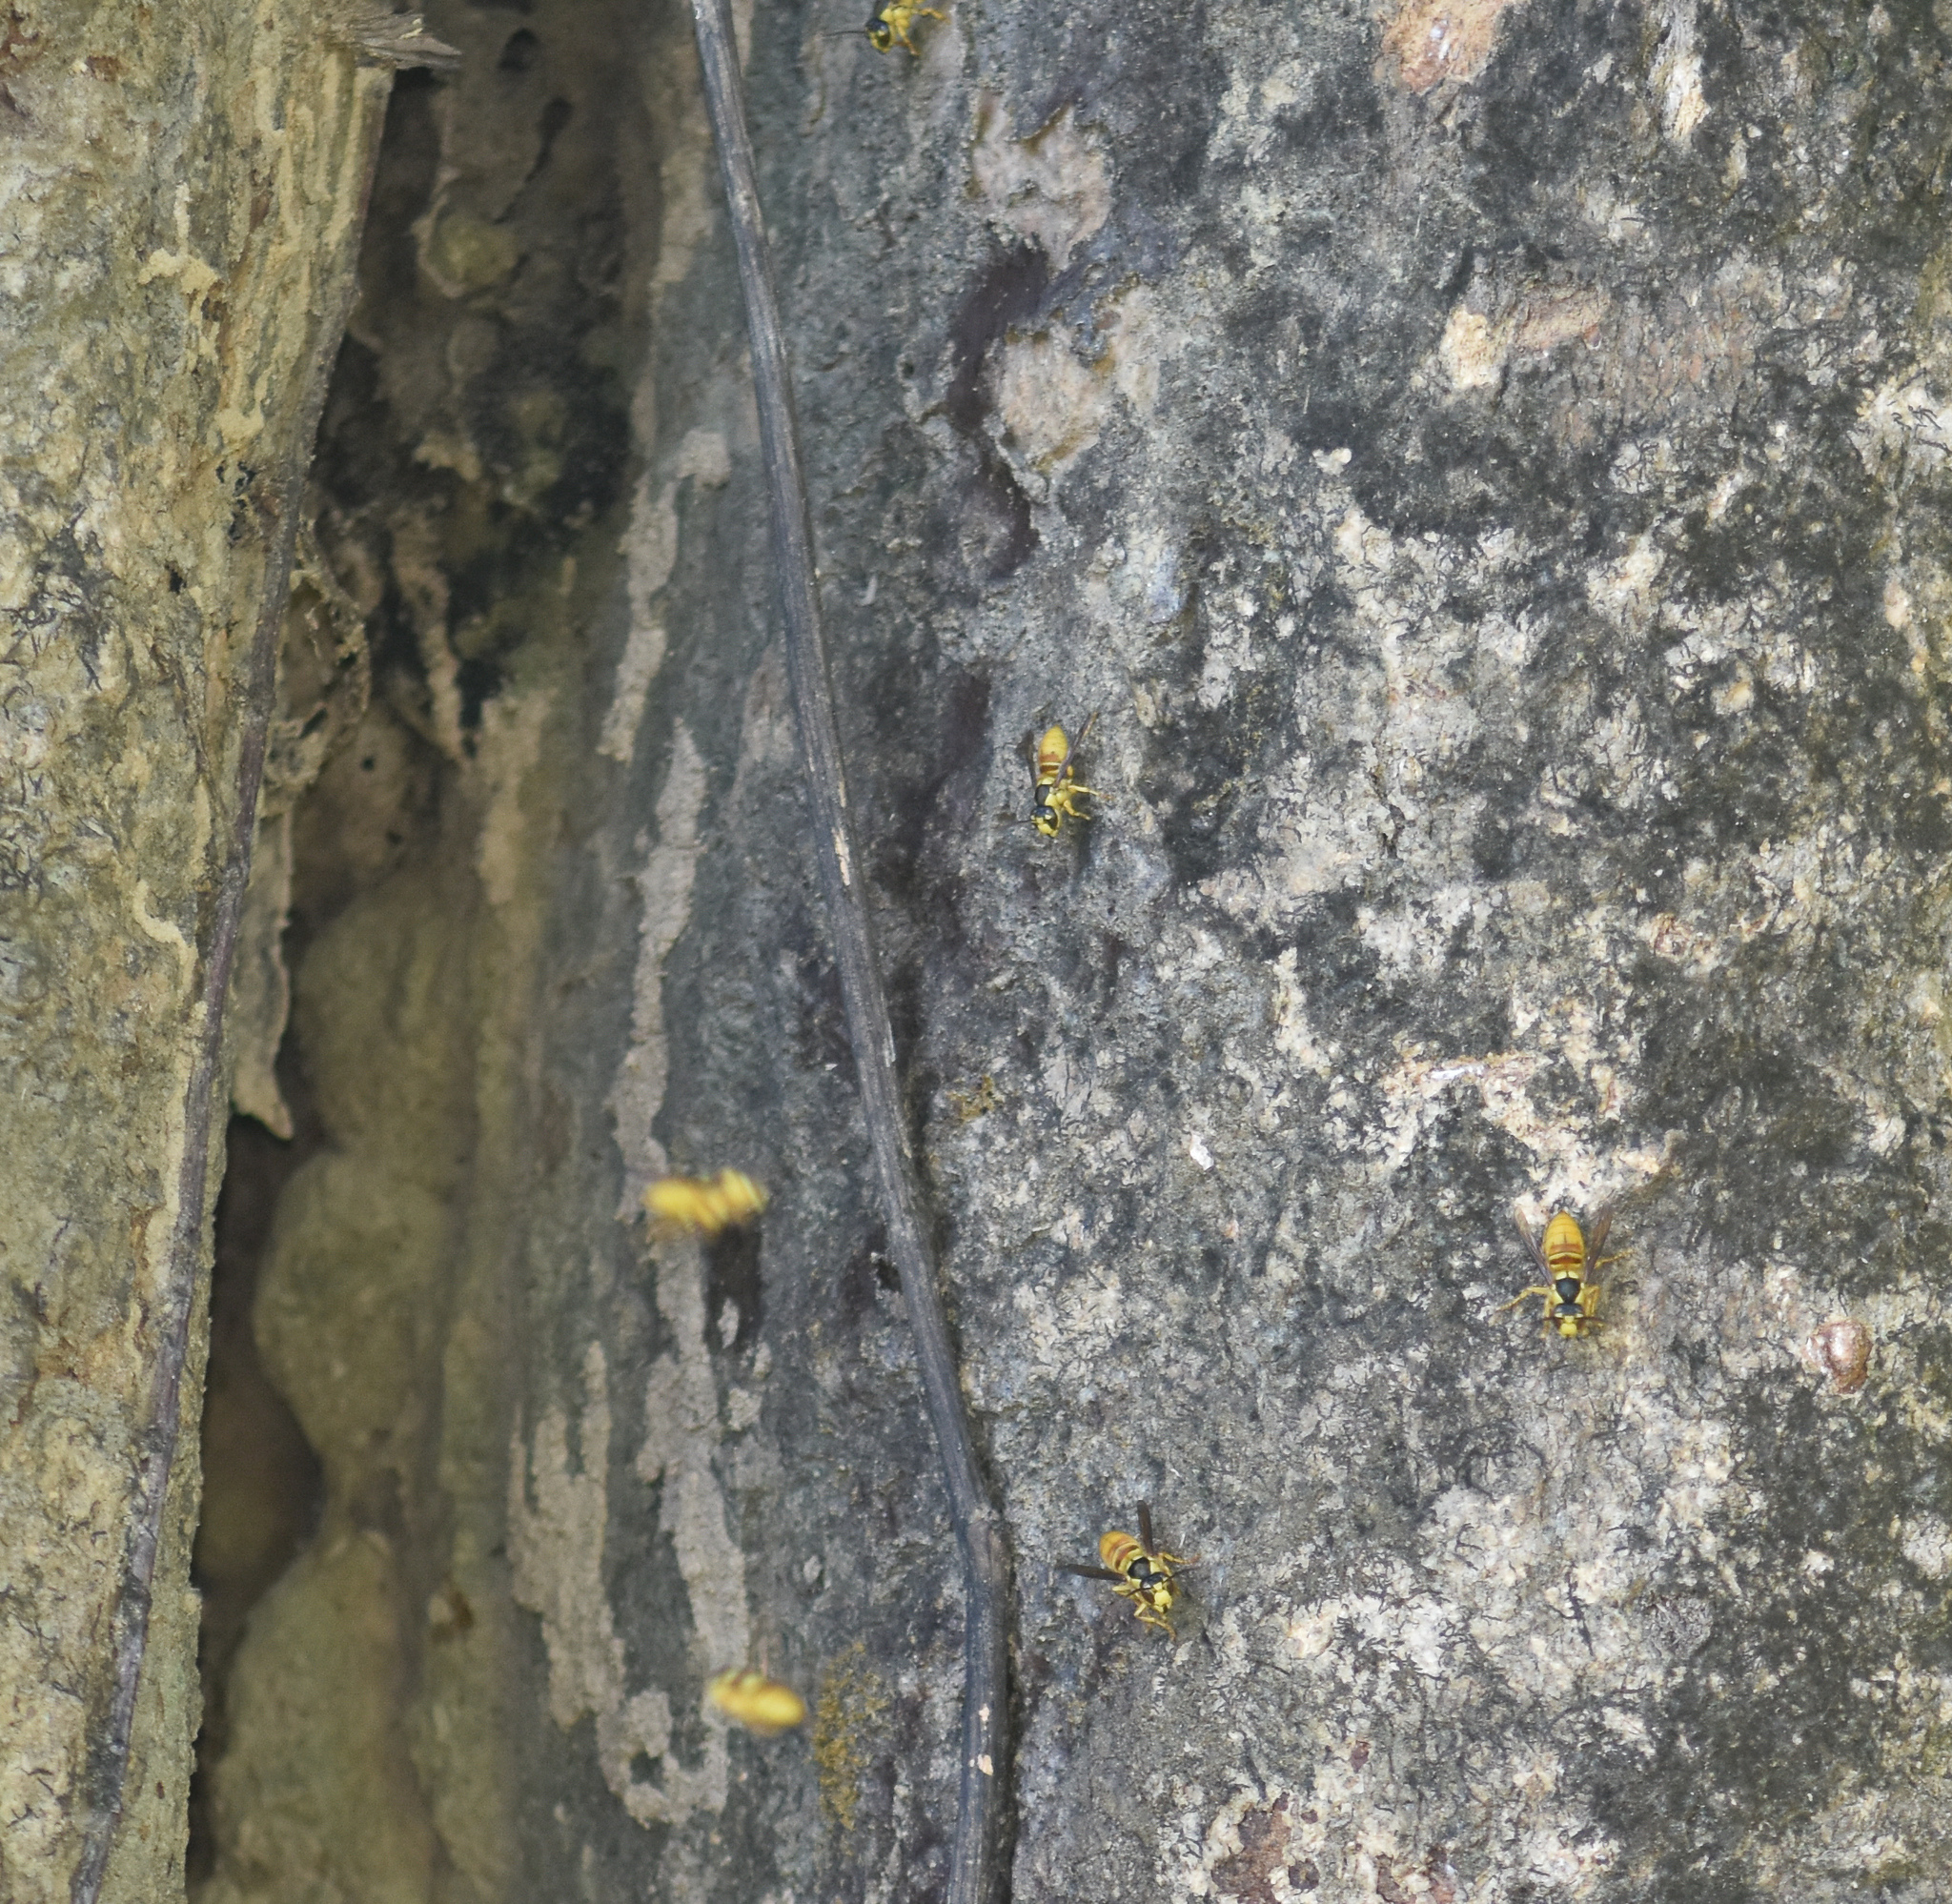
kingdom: Animalia
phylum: Arthropoda
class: Insecta
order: Hymenoptera
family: Vespidae
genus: Vespa
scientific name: Vespa bicolor
